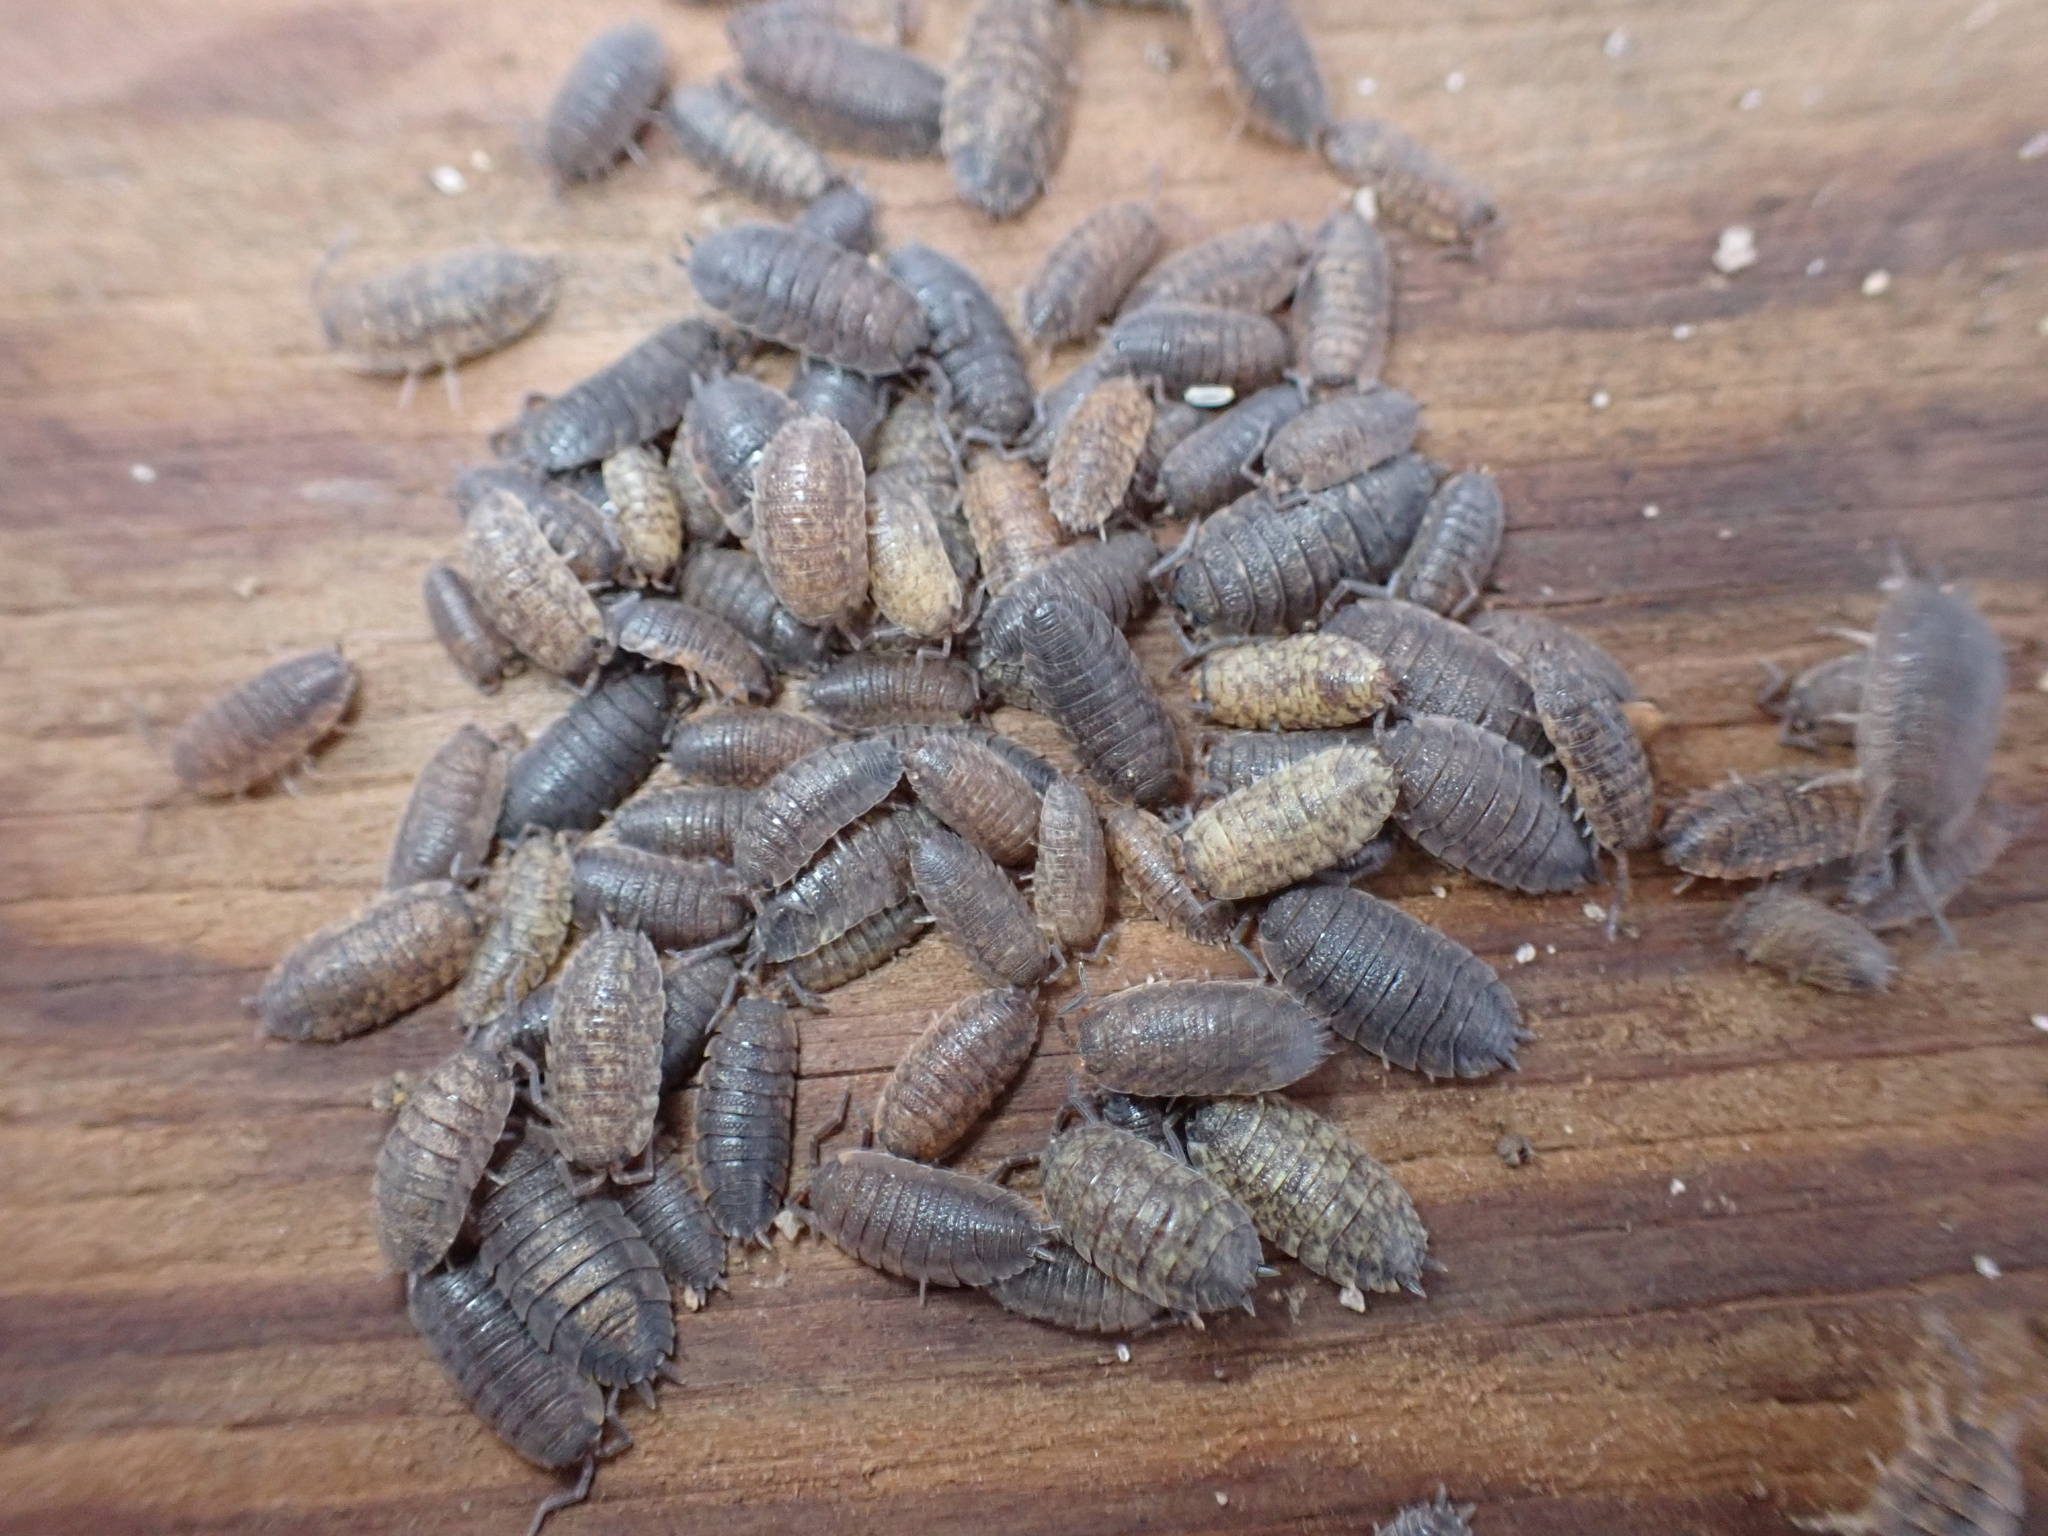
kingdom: Animalia
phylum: Arthropoda
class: Malacostraca
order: Isopoda
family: Porcellionidae
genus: Porcellio
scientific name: Porcellio scaber
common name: Common rough woodlouse
